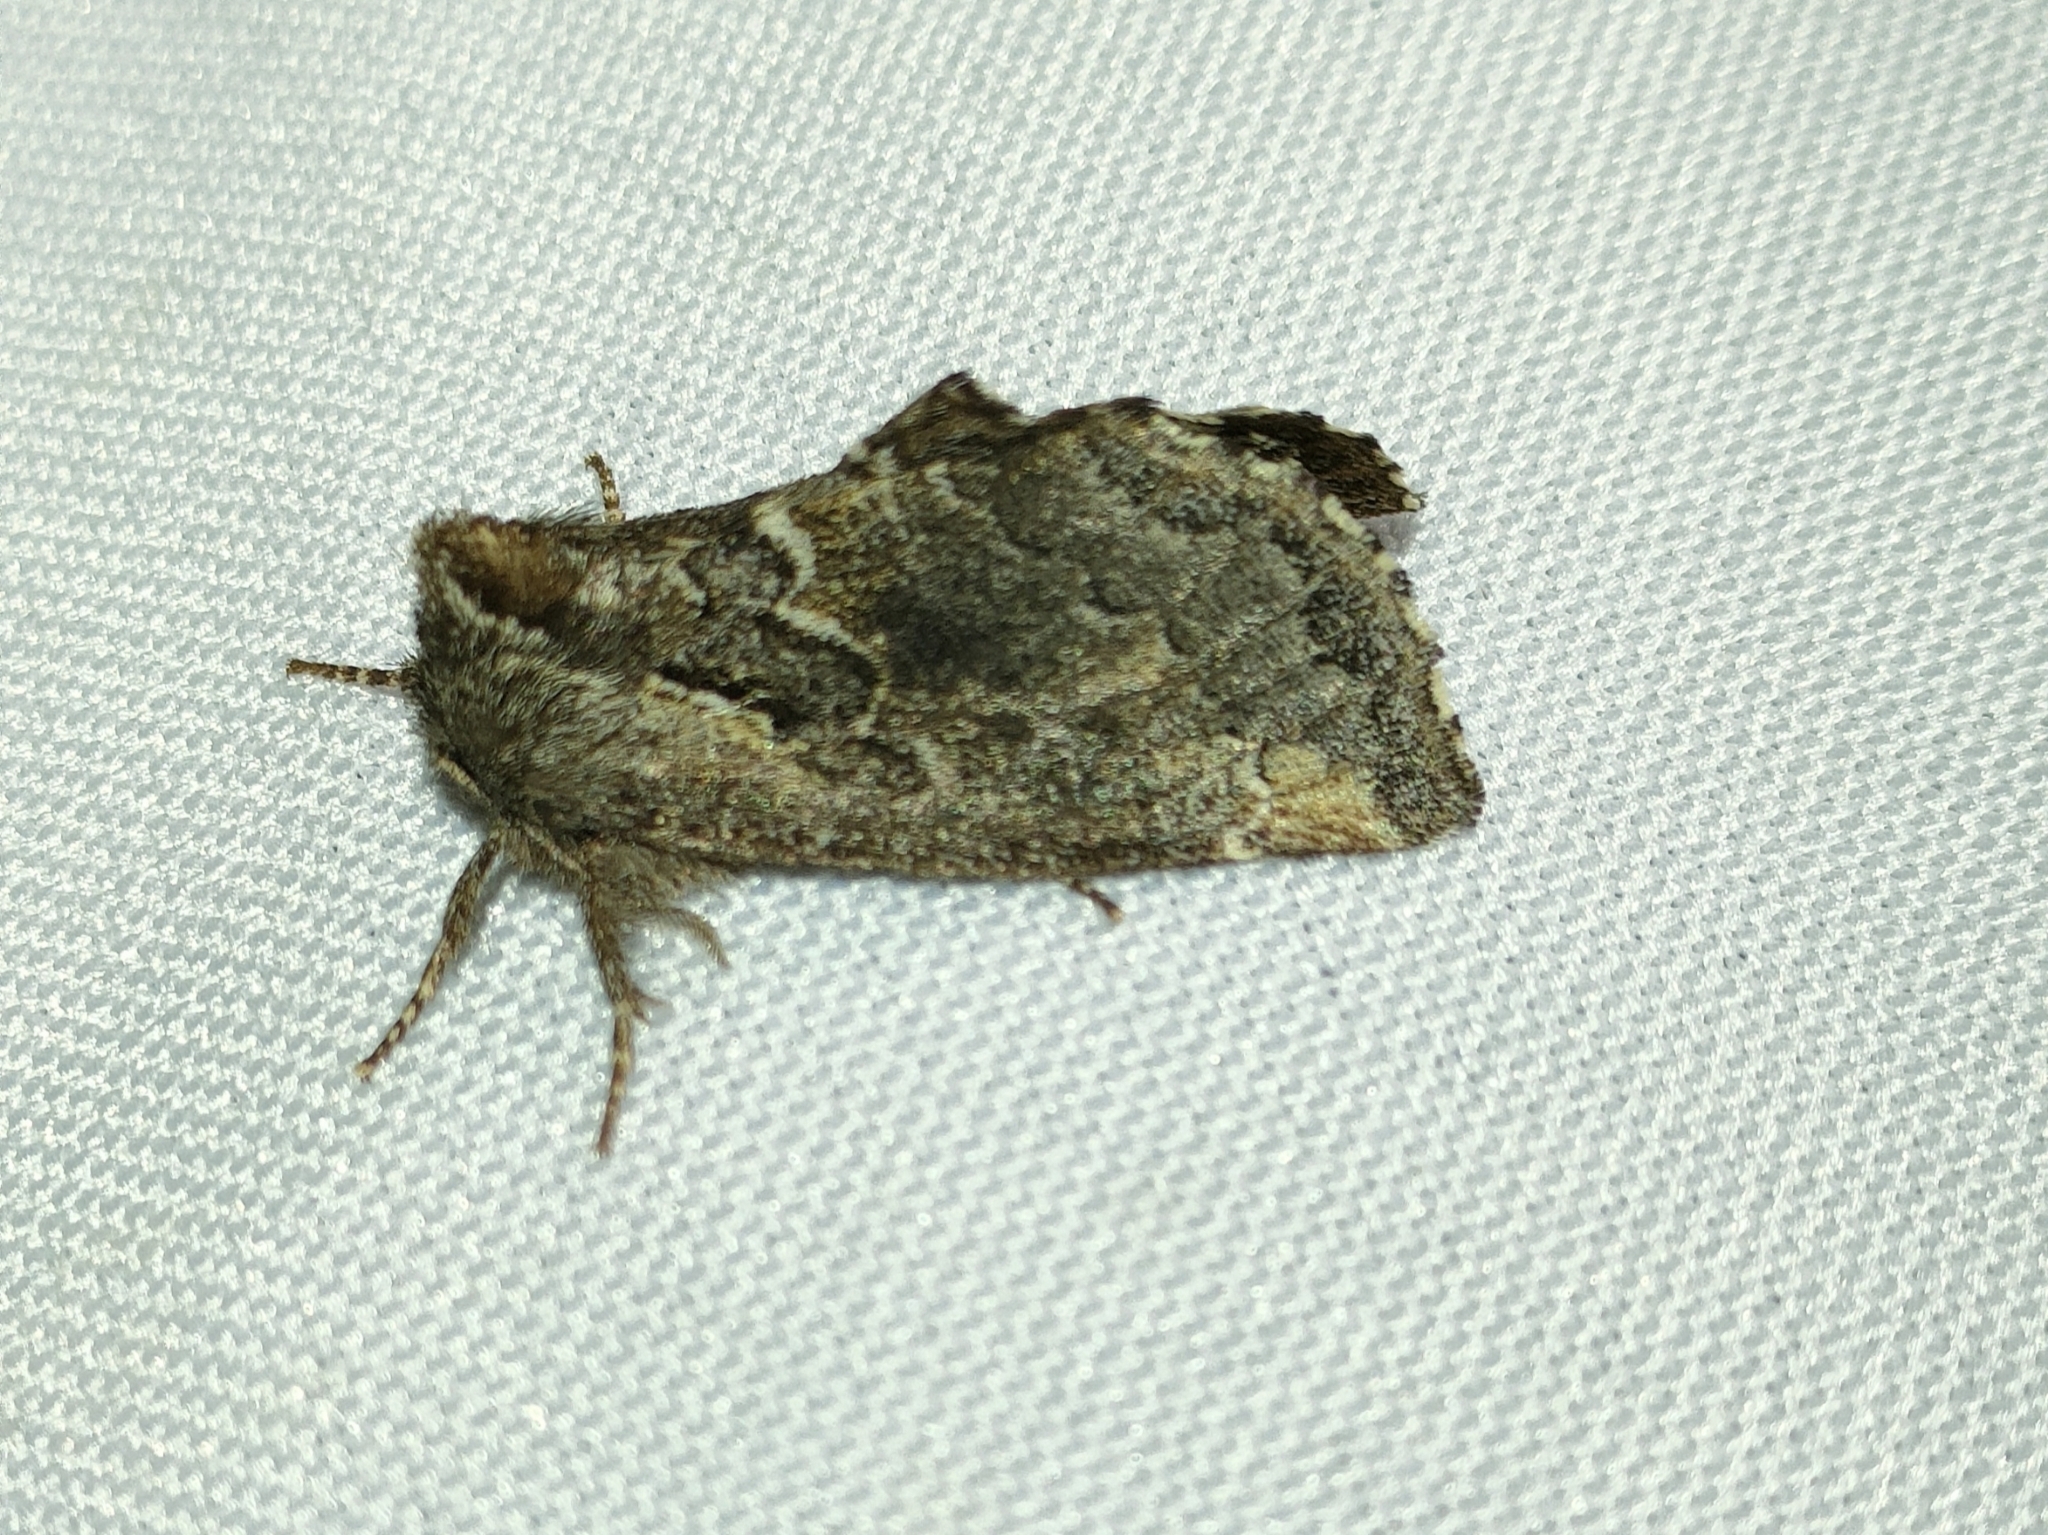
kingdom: Animalia
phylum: Arthropoda
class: Insecta
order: Lepidoptera
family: Notodontidae
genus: Rhegmatophila
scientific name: Rhegmatophila alpina
